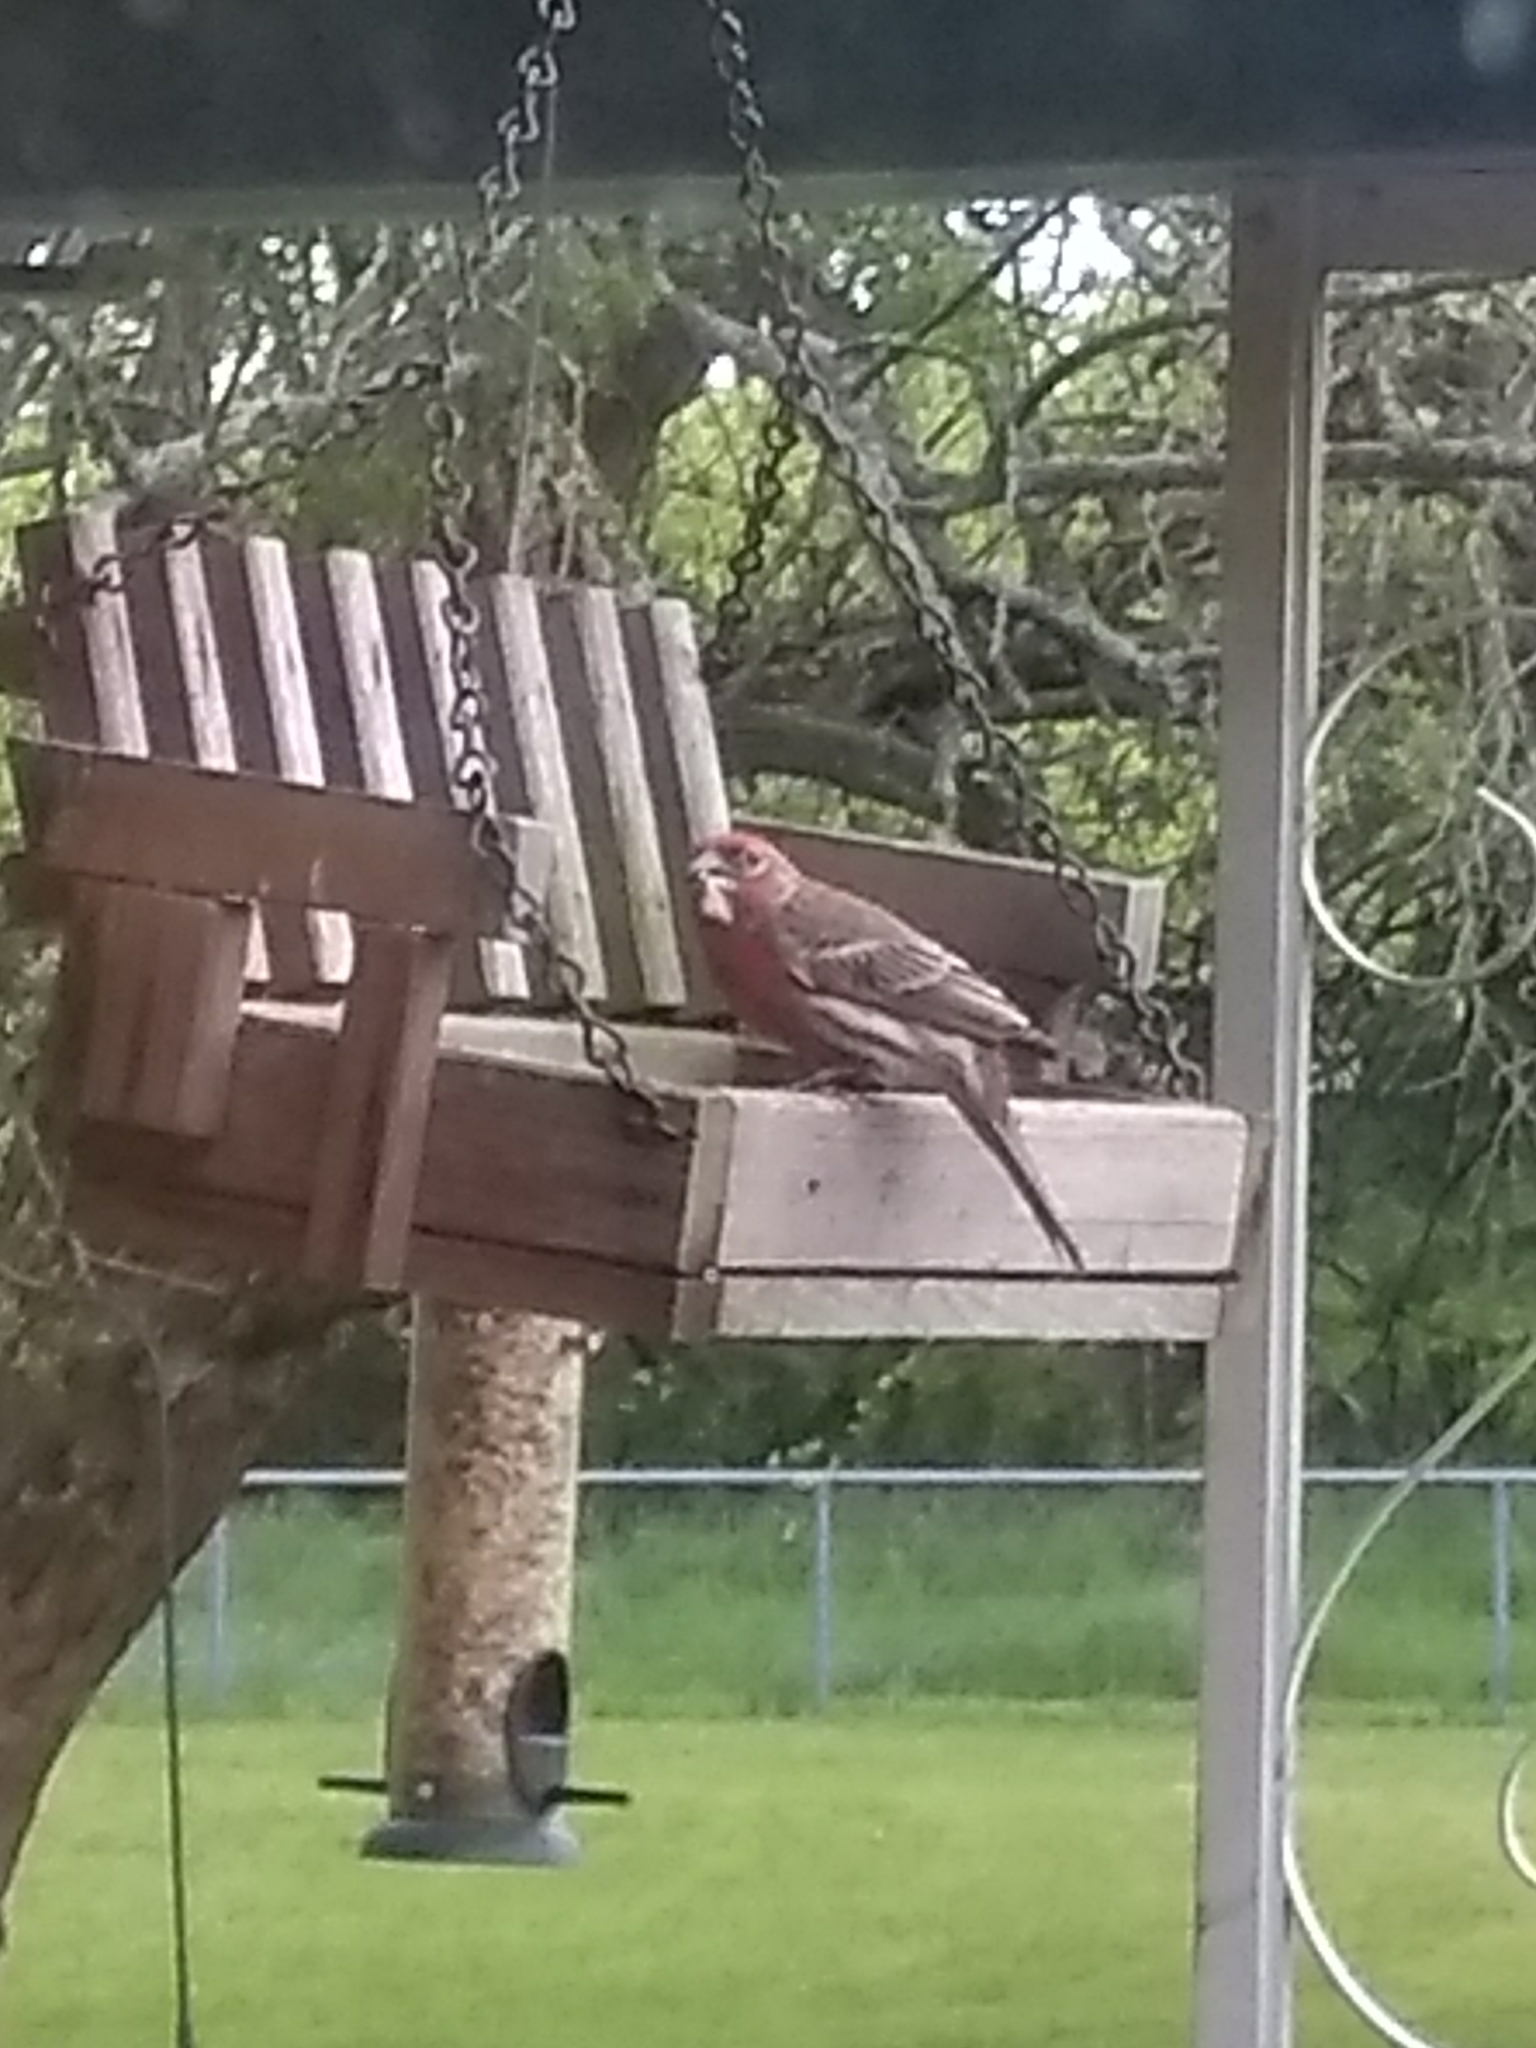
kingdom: Animalia
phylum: Chordata
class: Aves
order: Passeriformes
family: Fringillidae
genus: Haemorhous
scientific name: Haemorhous mexicanus
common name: House finch
